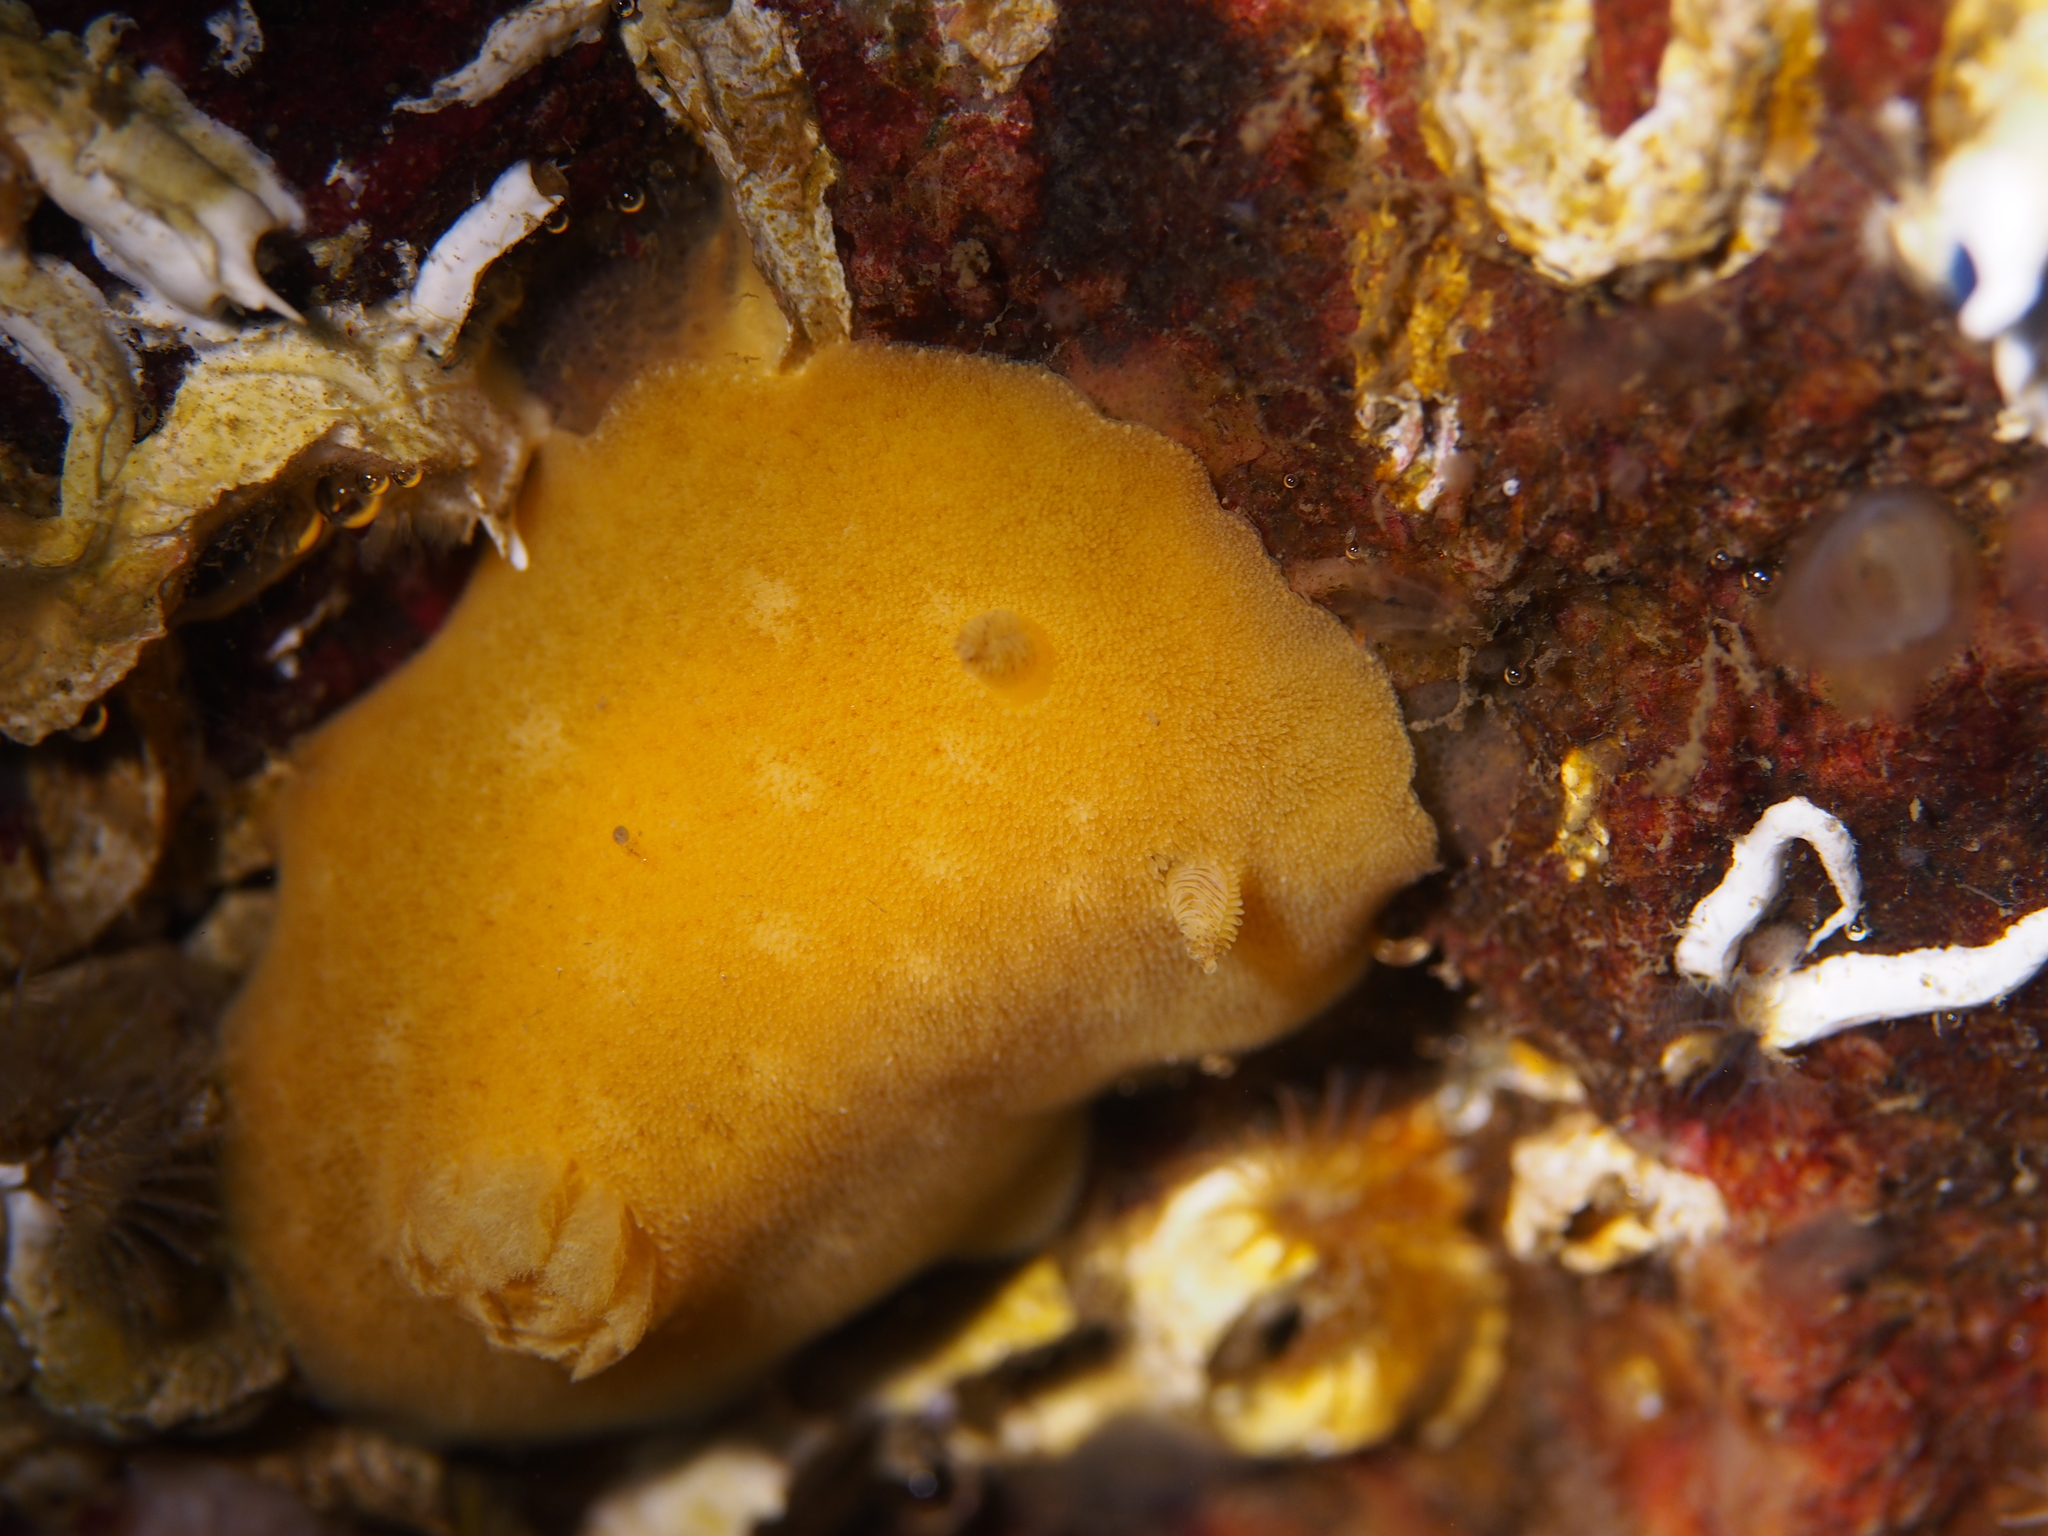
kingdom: Animalia
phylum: Mollusca
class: Gastropoda
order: Nudibranchia
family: Discodorididae
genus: Jorunna
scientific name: Jorunna tomentosa
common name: Grey sea slug
